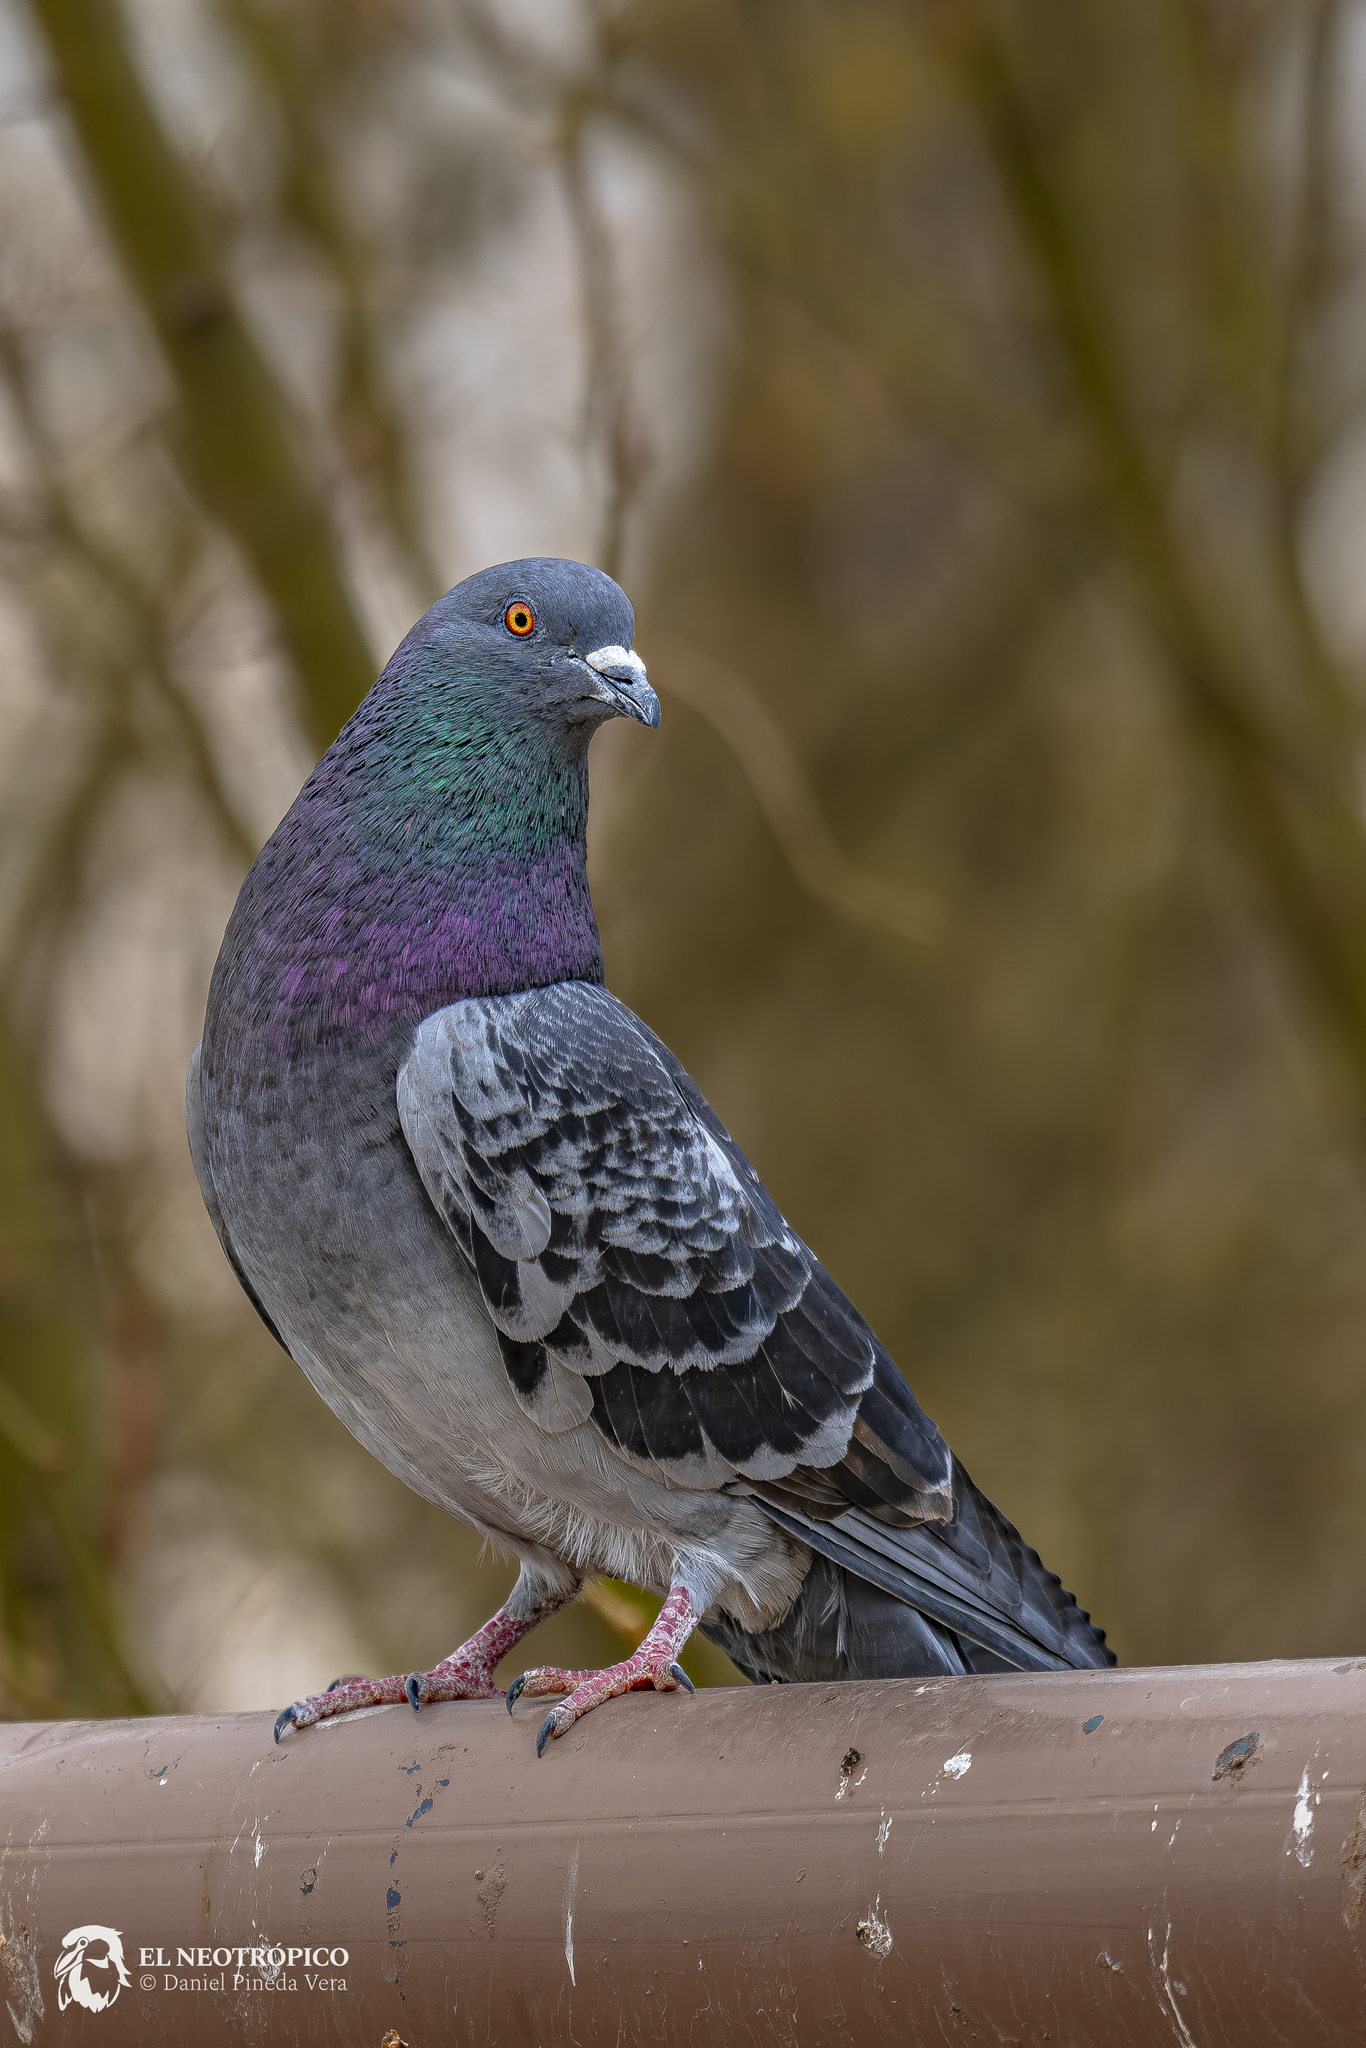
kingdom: Animalia
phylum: Chordata
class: Aves
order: Columbiformes
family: Columbidae
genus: Columba
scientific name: Columba livia
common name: Rock pigeon
